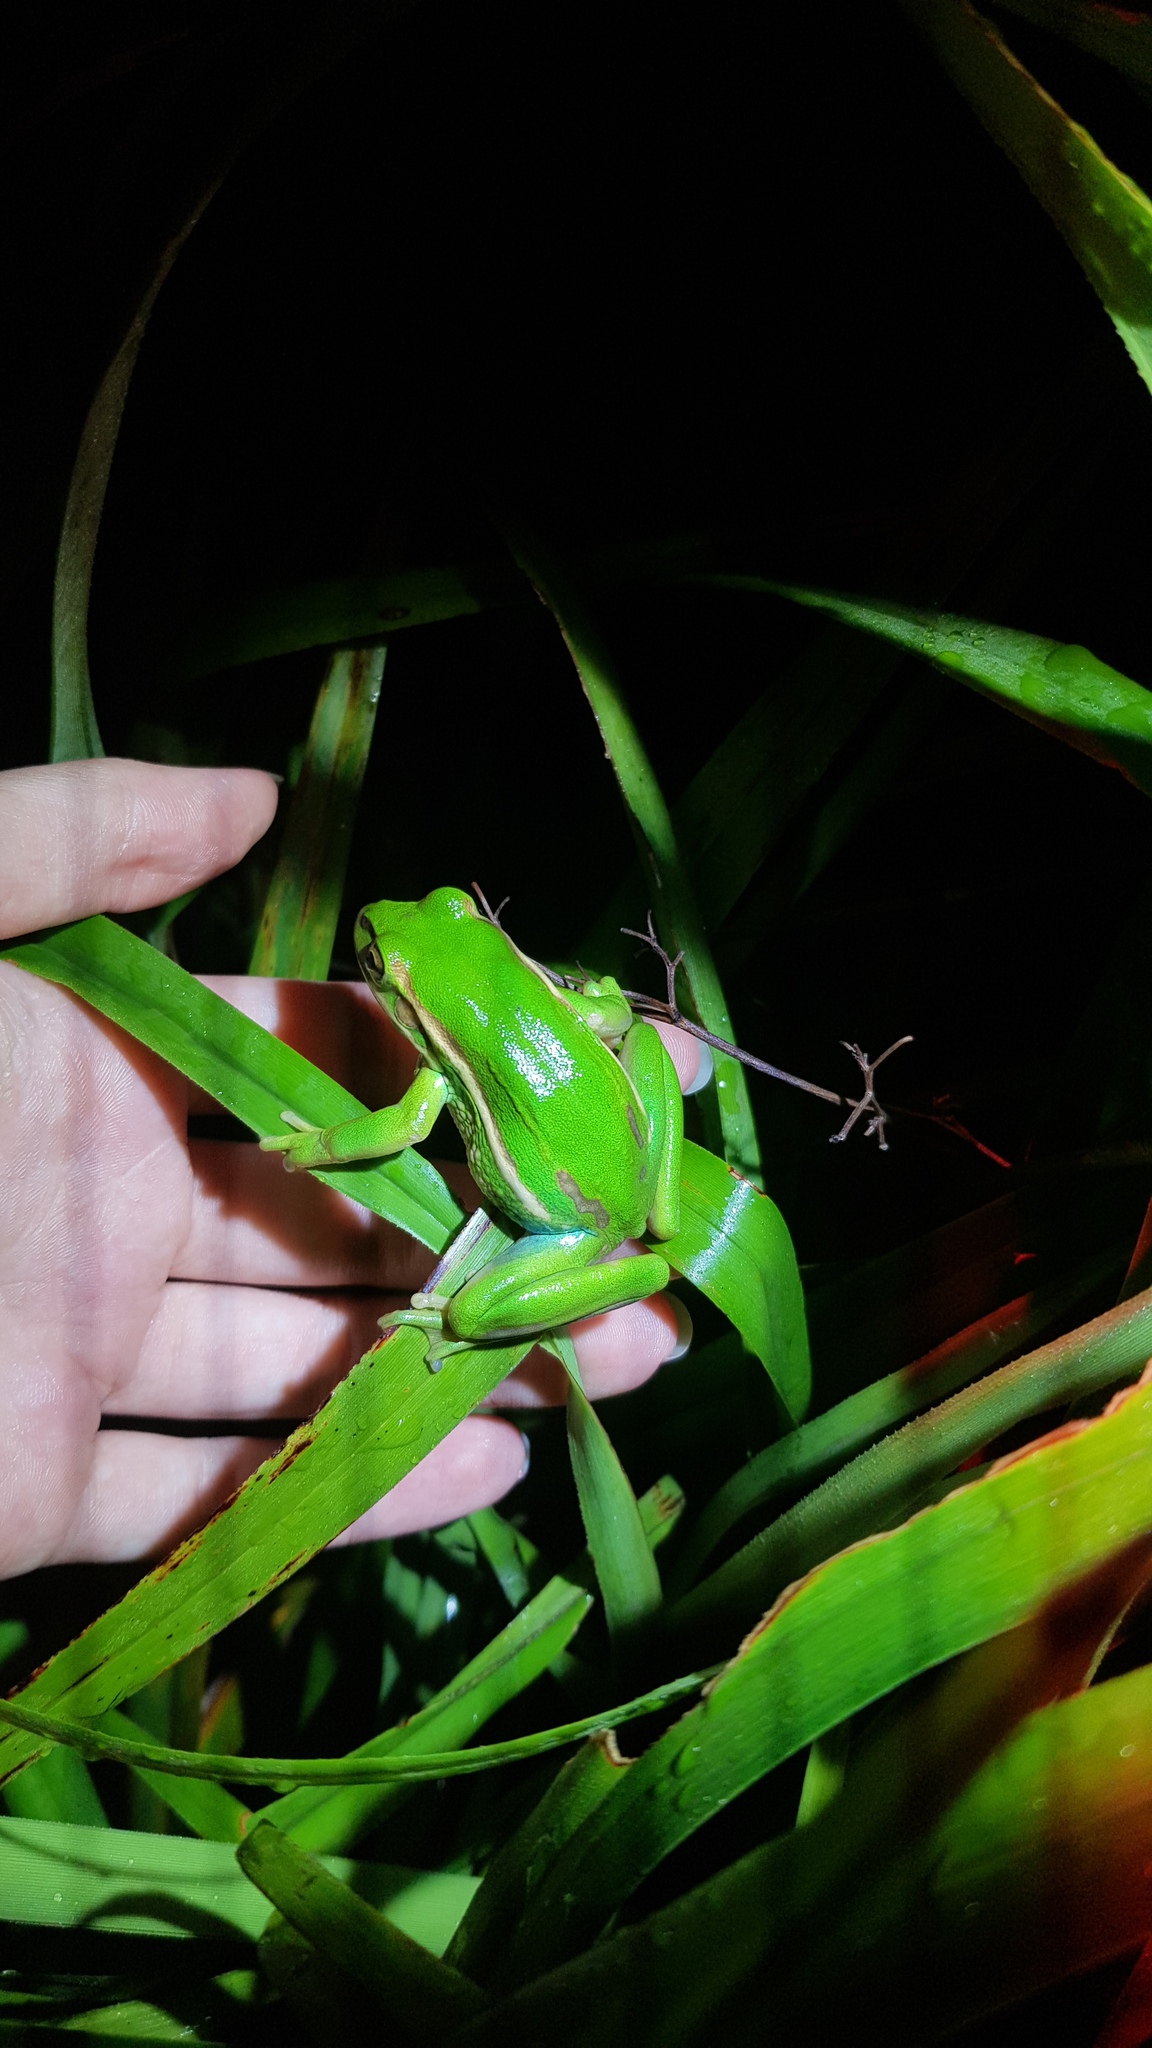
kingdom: Animalia
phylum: Chordata
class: Amphibia
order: Anura
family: Pelodryadidae
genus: Ranoidea
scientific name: Ranoidea aurea
